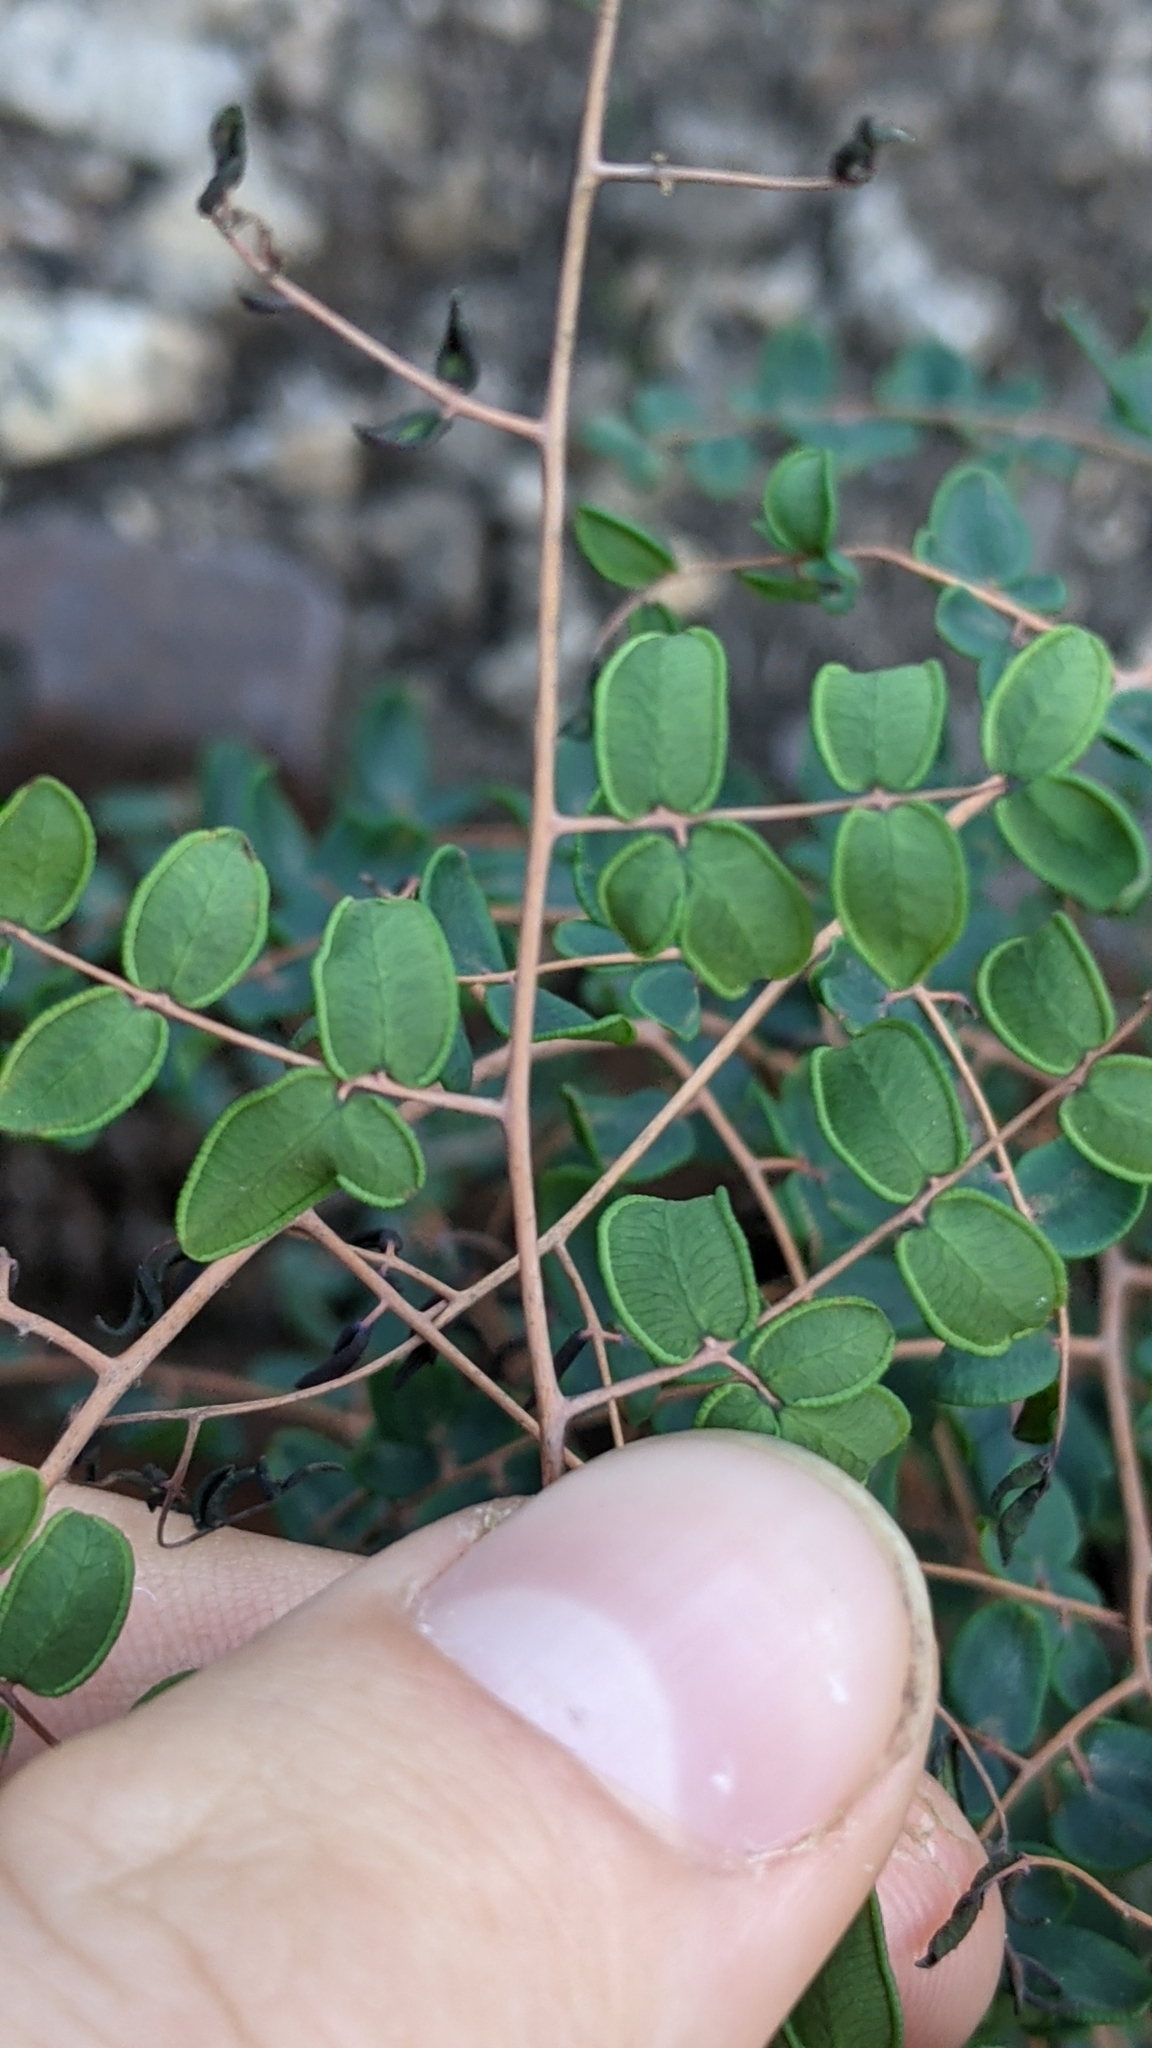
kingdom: Plantae
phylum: Tracheophyta
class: Polypodiopsida
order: Polypodiales
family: Pteridaceae
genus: Pellaea
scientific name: Pellaea andromedifolia
